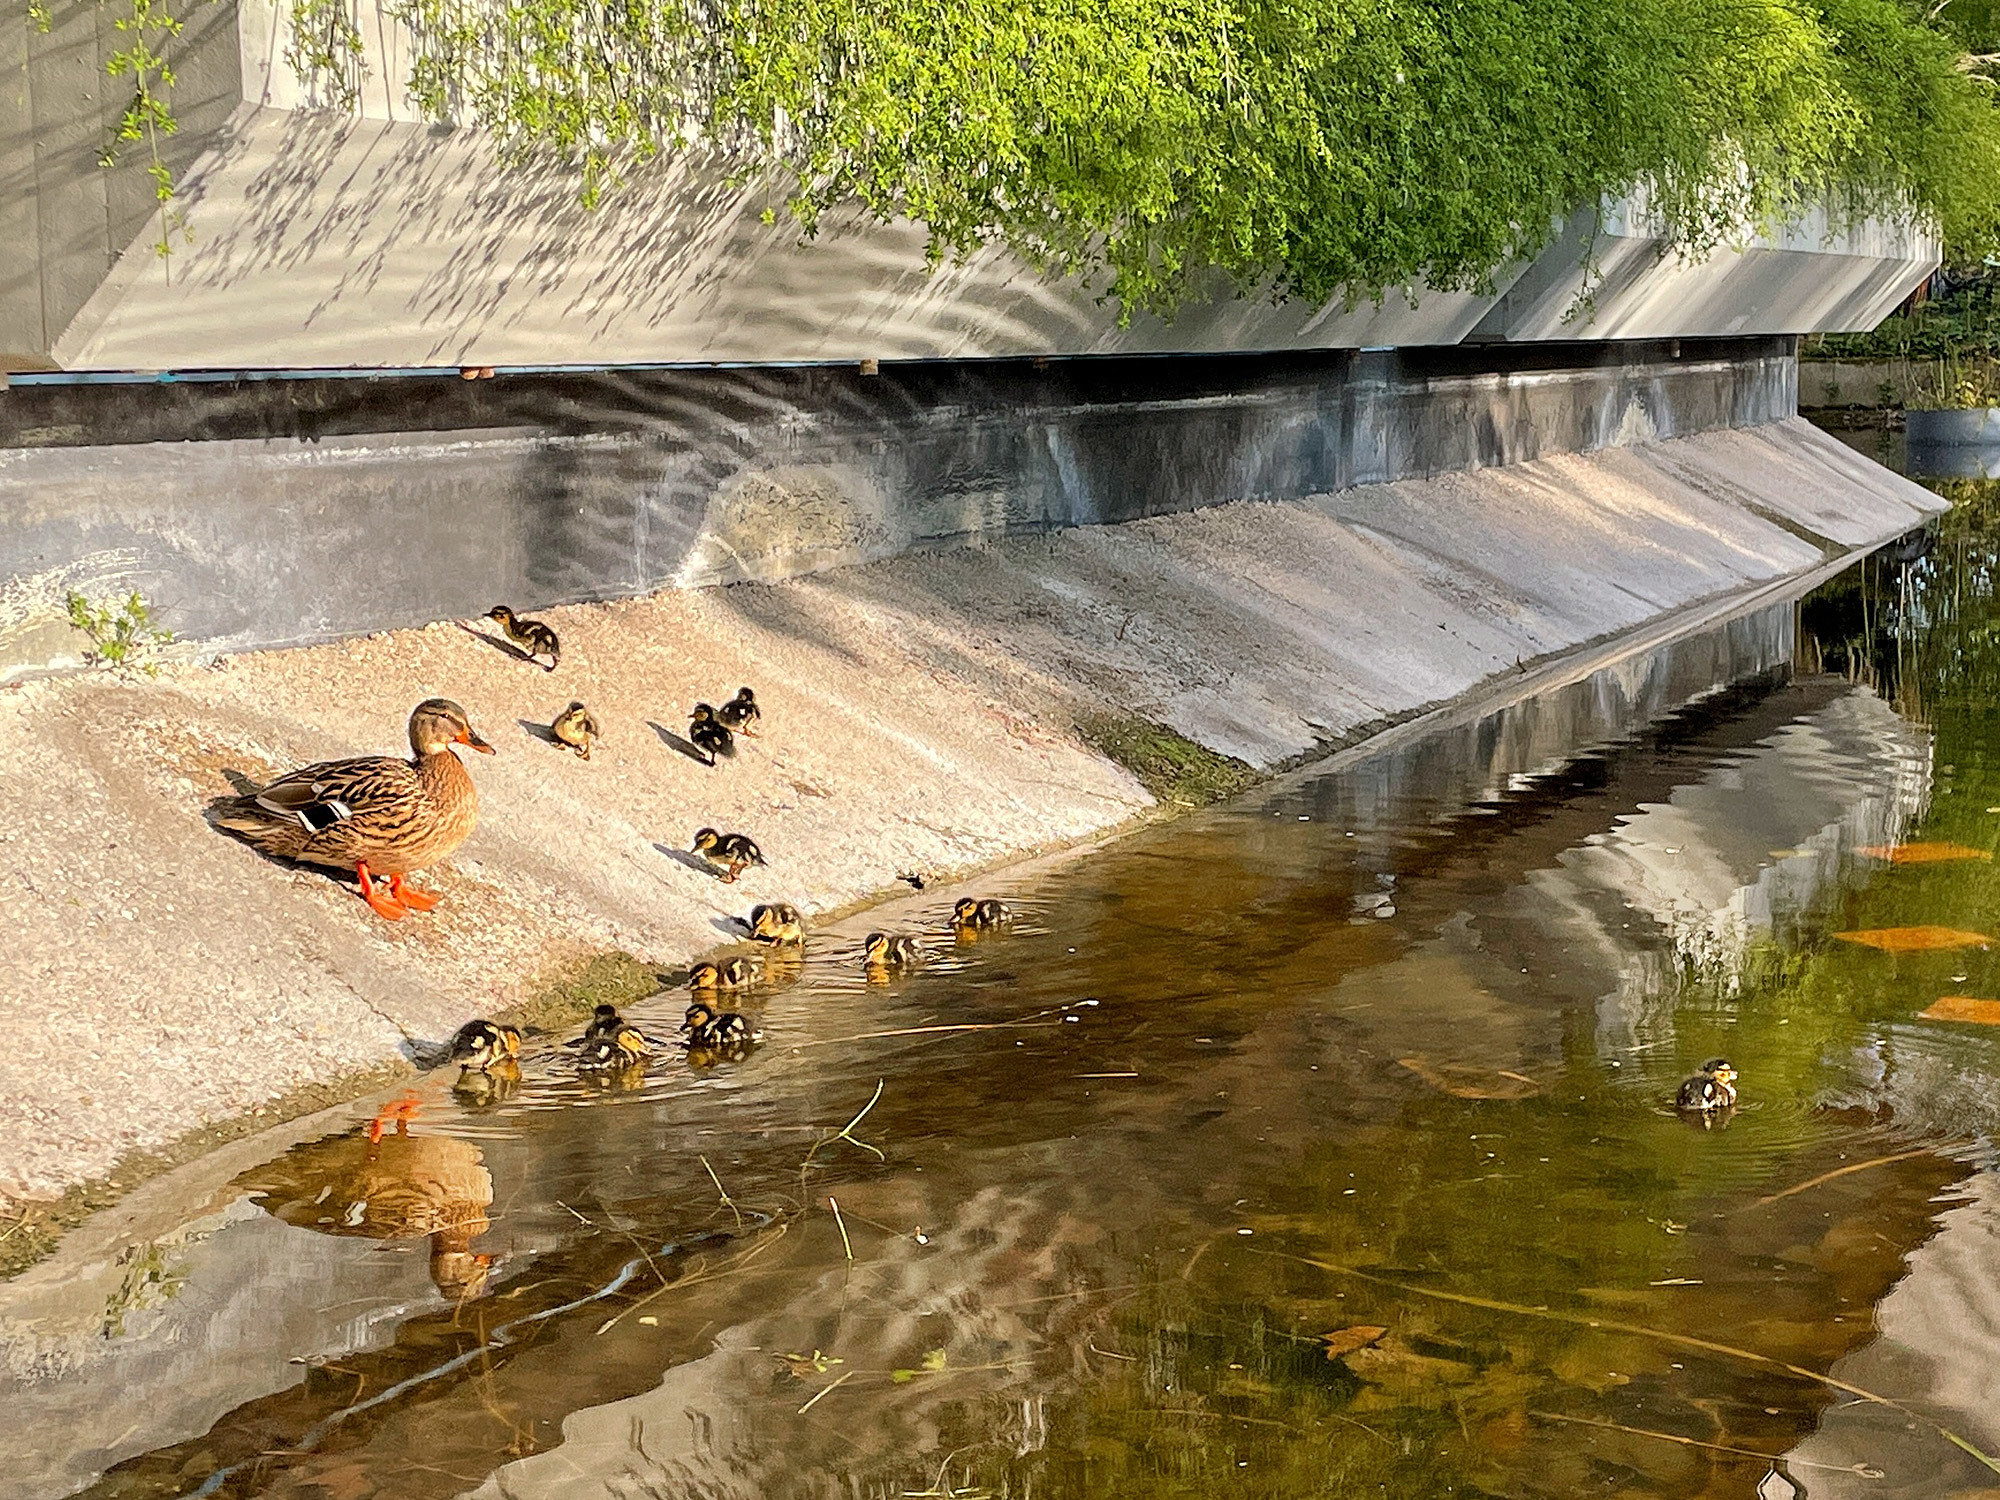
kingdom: Animalia
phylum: Chordata
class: Aves
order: Anseriformes
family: Anatidae
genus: Anas
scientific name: Anas platyrhynchos
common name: Mallard
